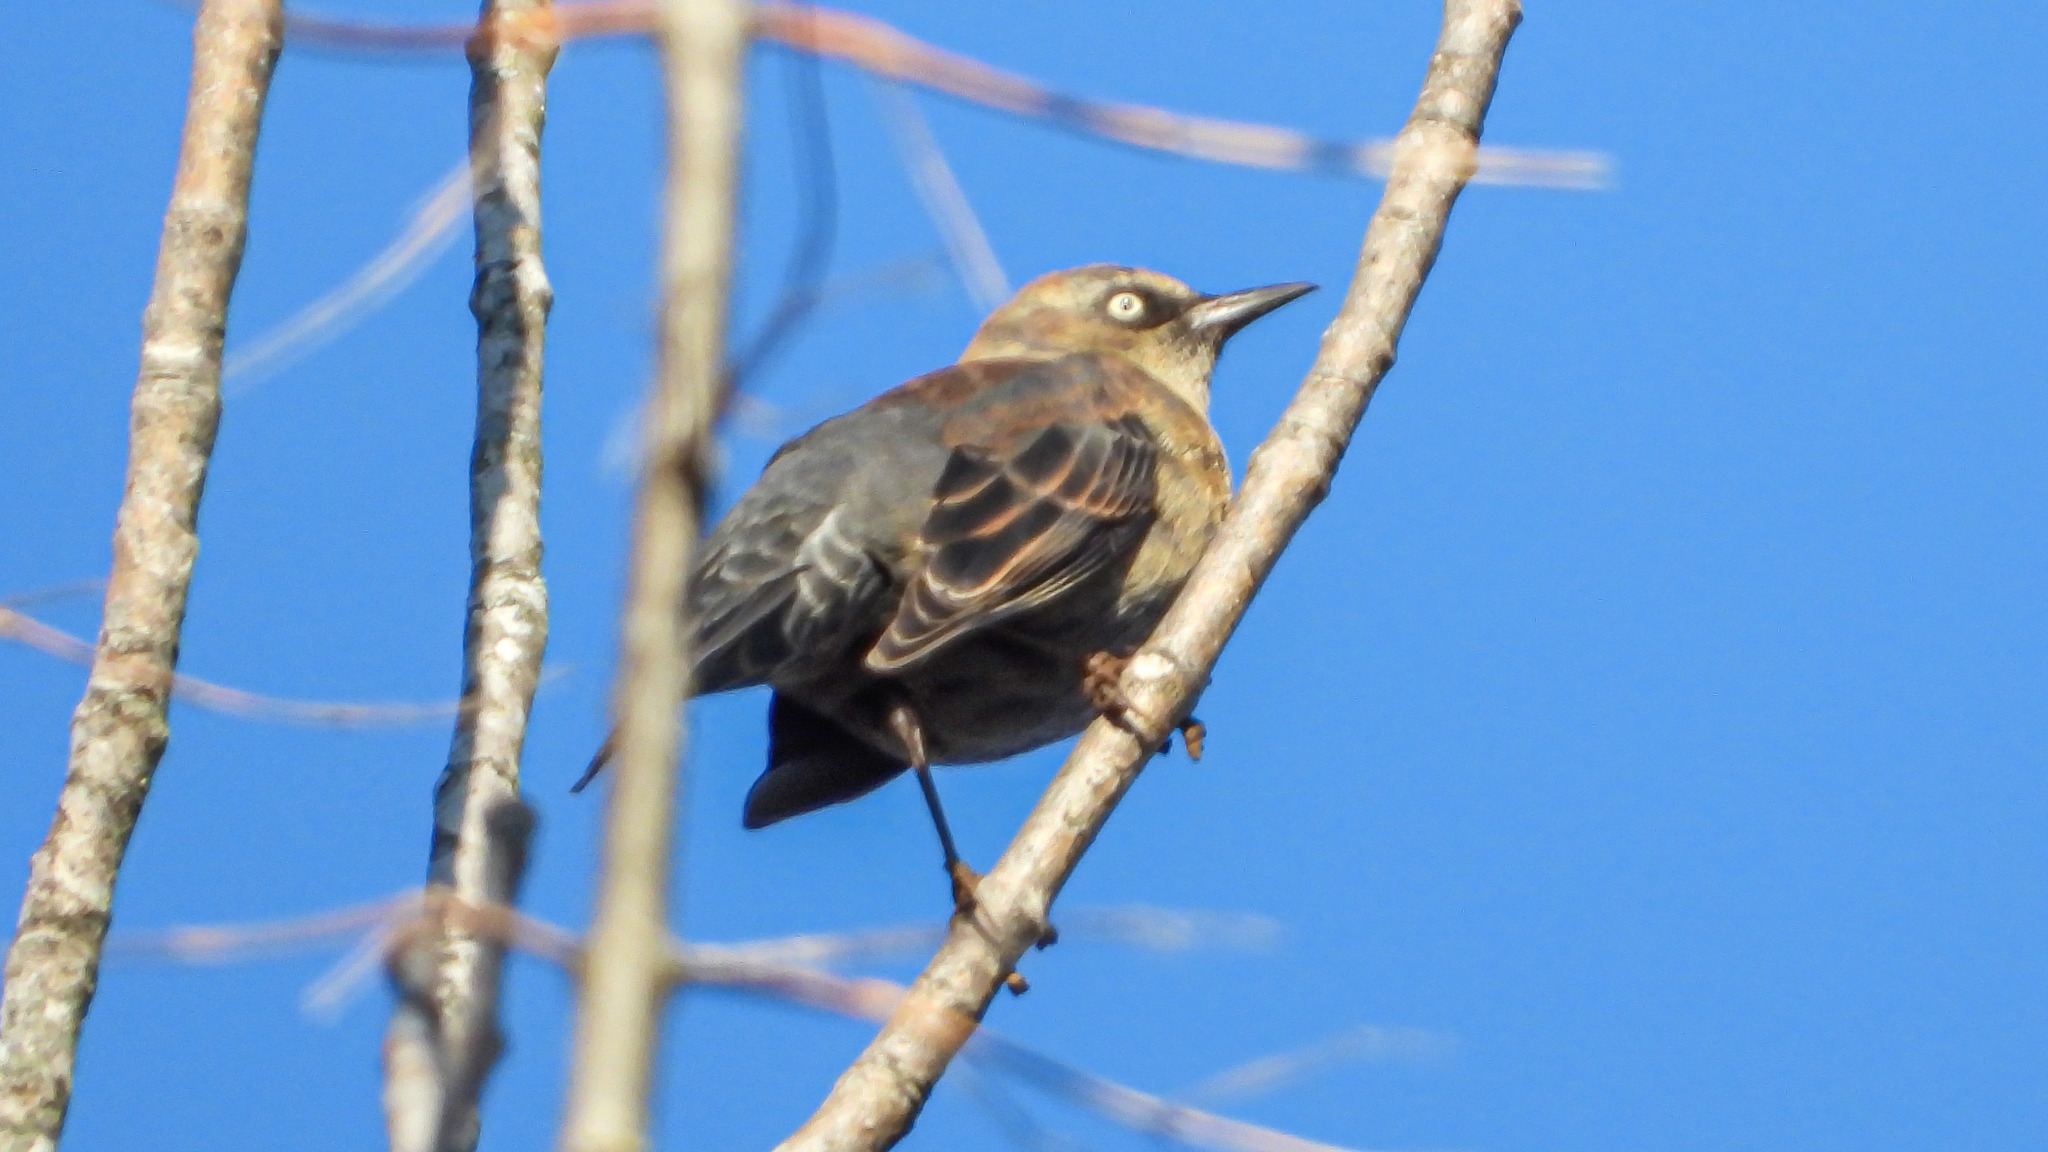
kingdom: Animalia
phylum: Chordata
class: Aves
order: Passeriformes
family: Icteridae
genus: Euphagus
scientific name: Euphagus carolinus
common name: Rusty blackbird
